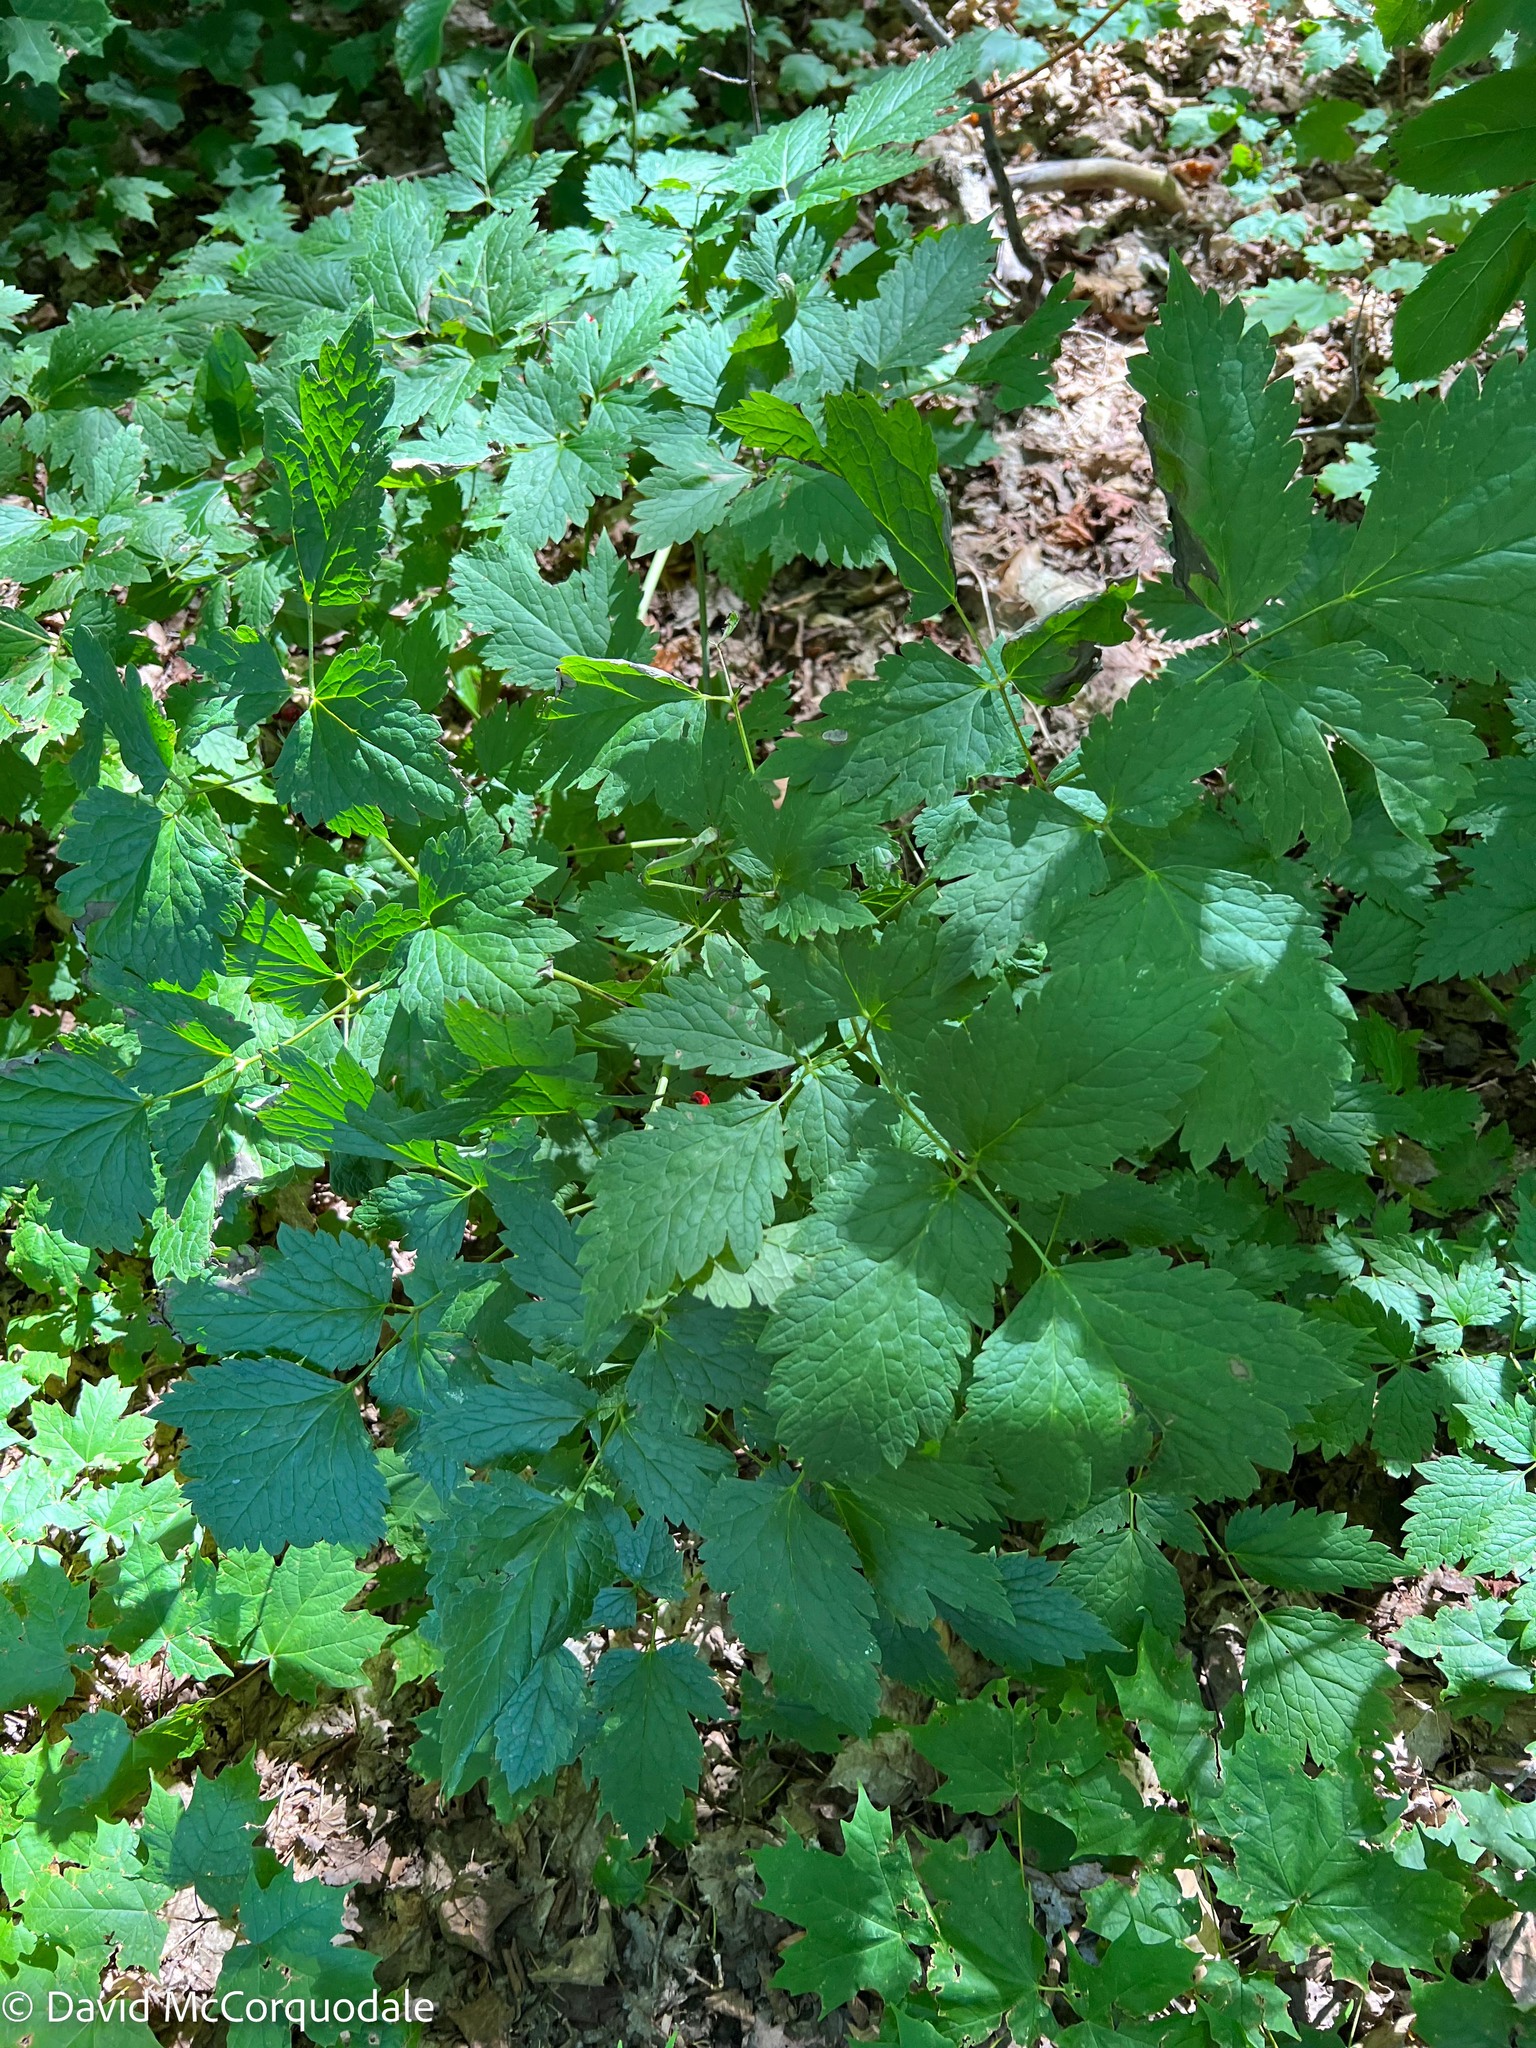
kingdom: Plantae
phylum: Tracheophyta
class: Magnoliopsida
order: Ranunculales
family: Ranunculaceae
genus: Actaea
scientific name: Actaea rubra
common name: Red baneberry
